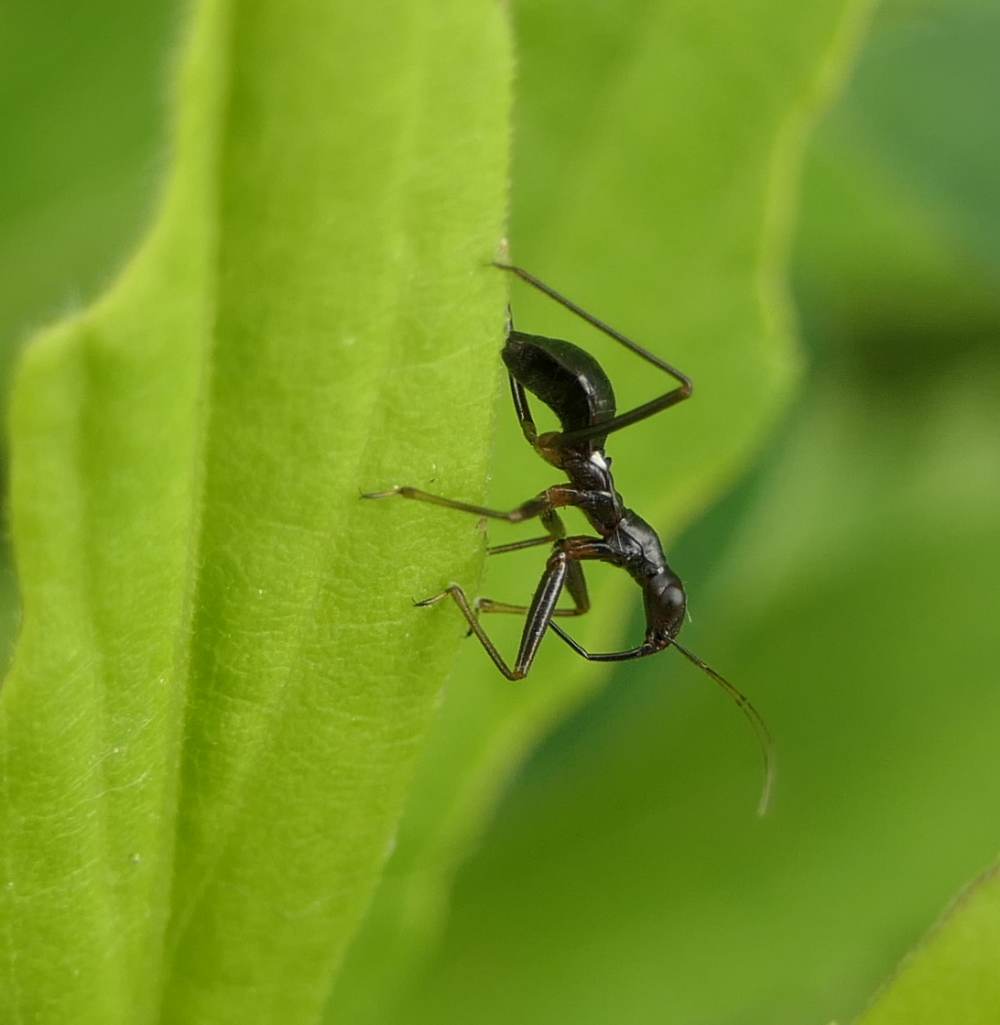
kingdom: Animalia
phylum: Arthropoda
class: Insecta
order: Hemiptera
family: Nabidae
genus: Nabis
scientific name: Nabis
